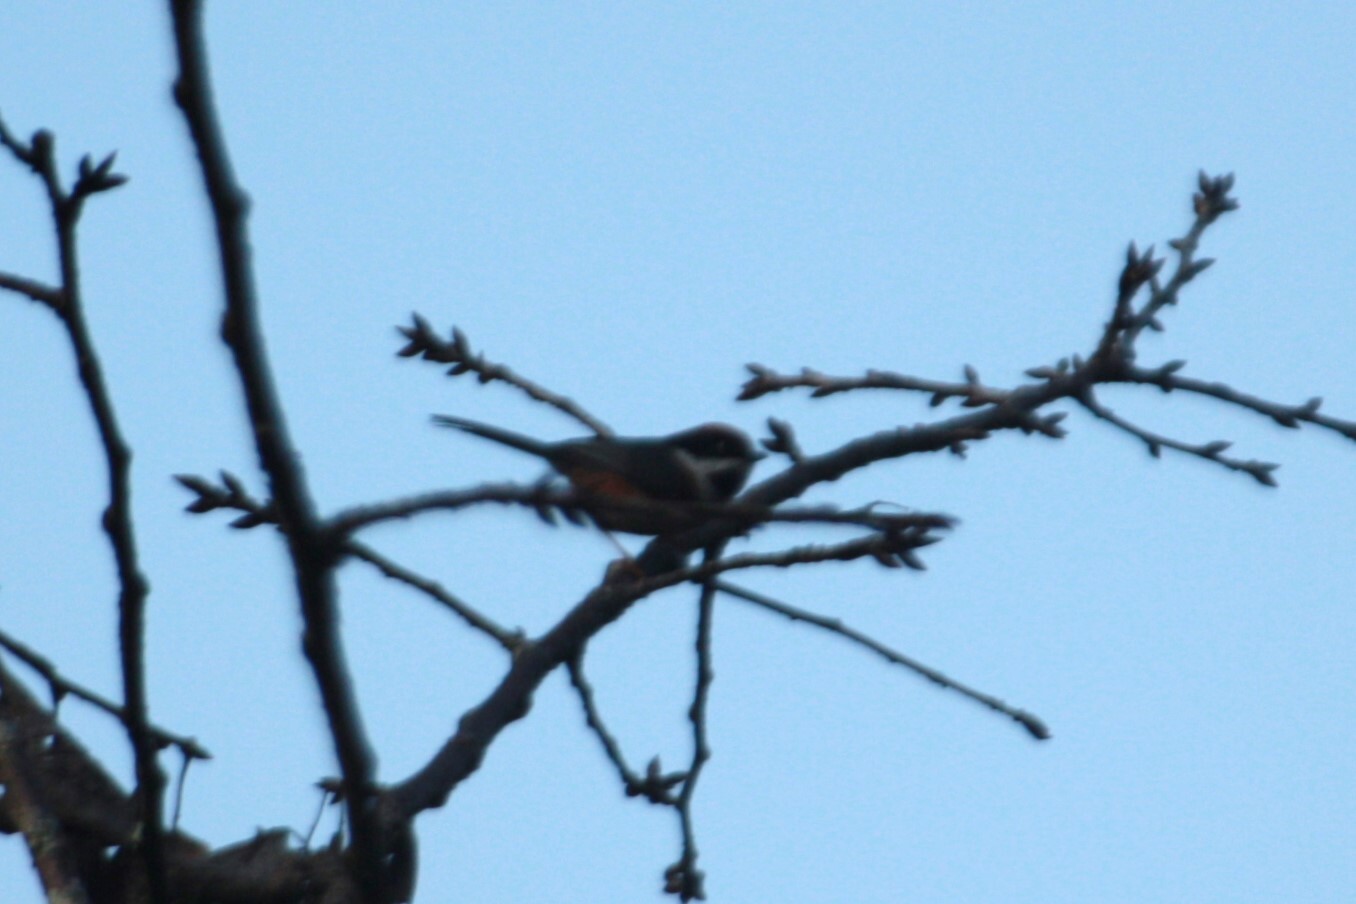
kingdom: Animalia
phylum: Chordata
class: Aves
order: Passeriformes
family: Aegithalidae
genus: Aegithalos
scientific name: Aegithalos concinnus
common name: Black-throated bushtit
